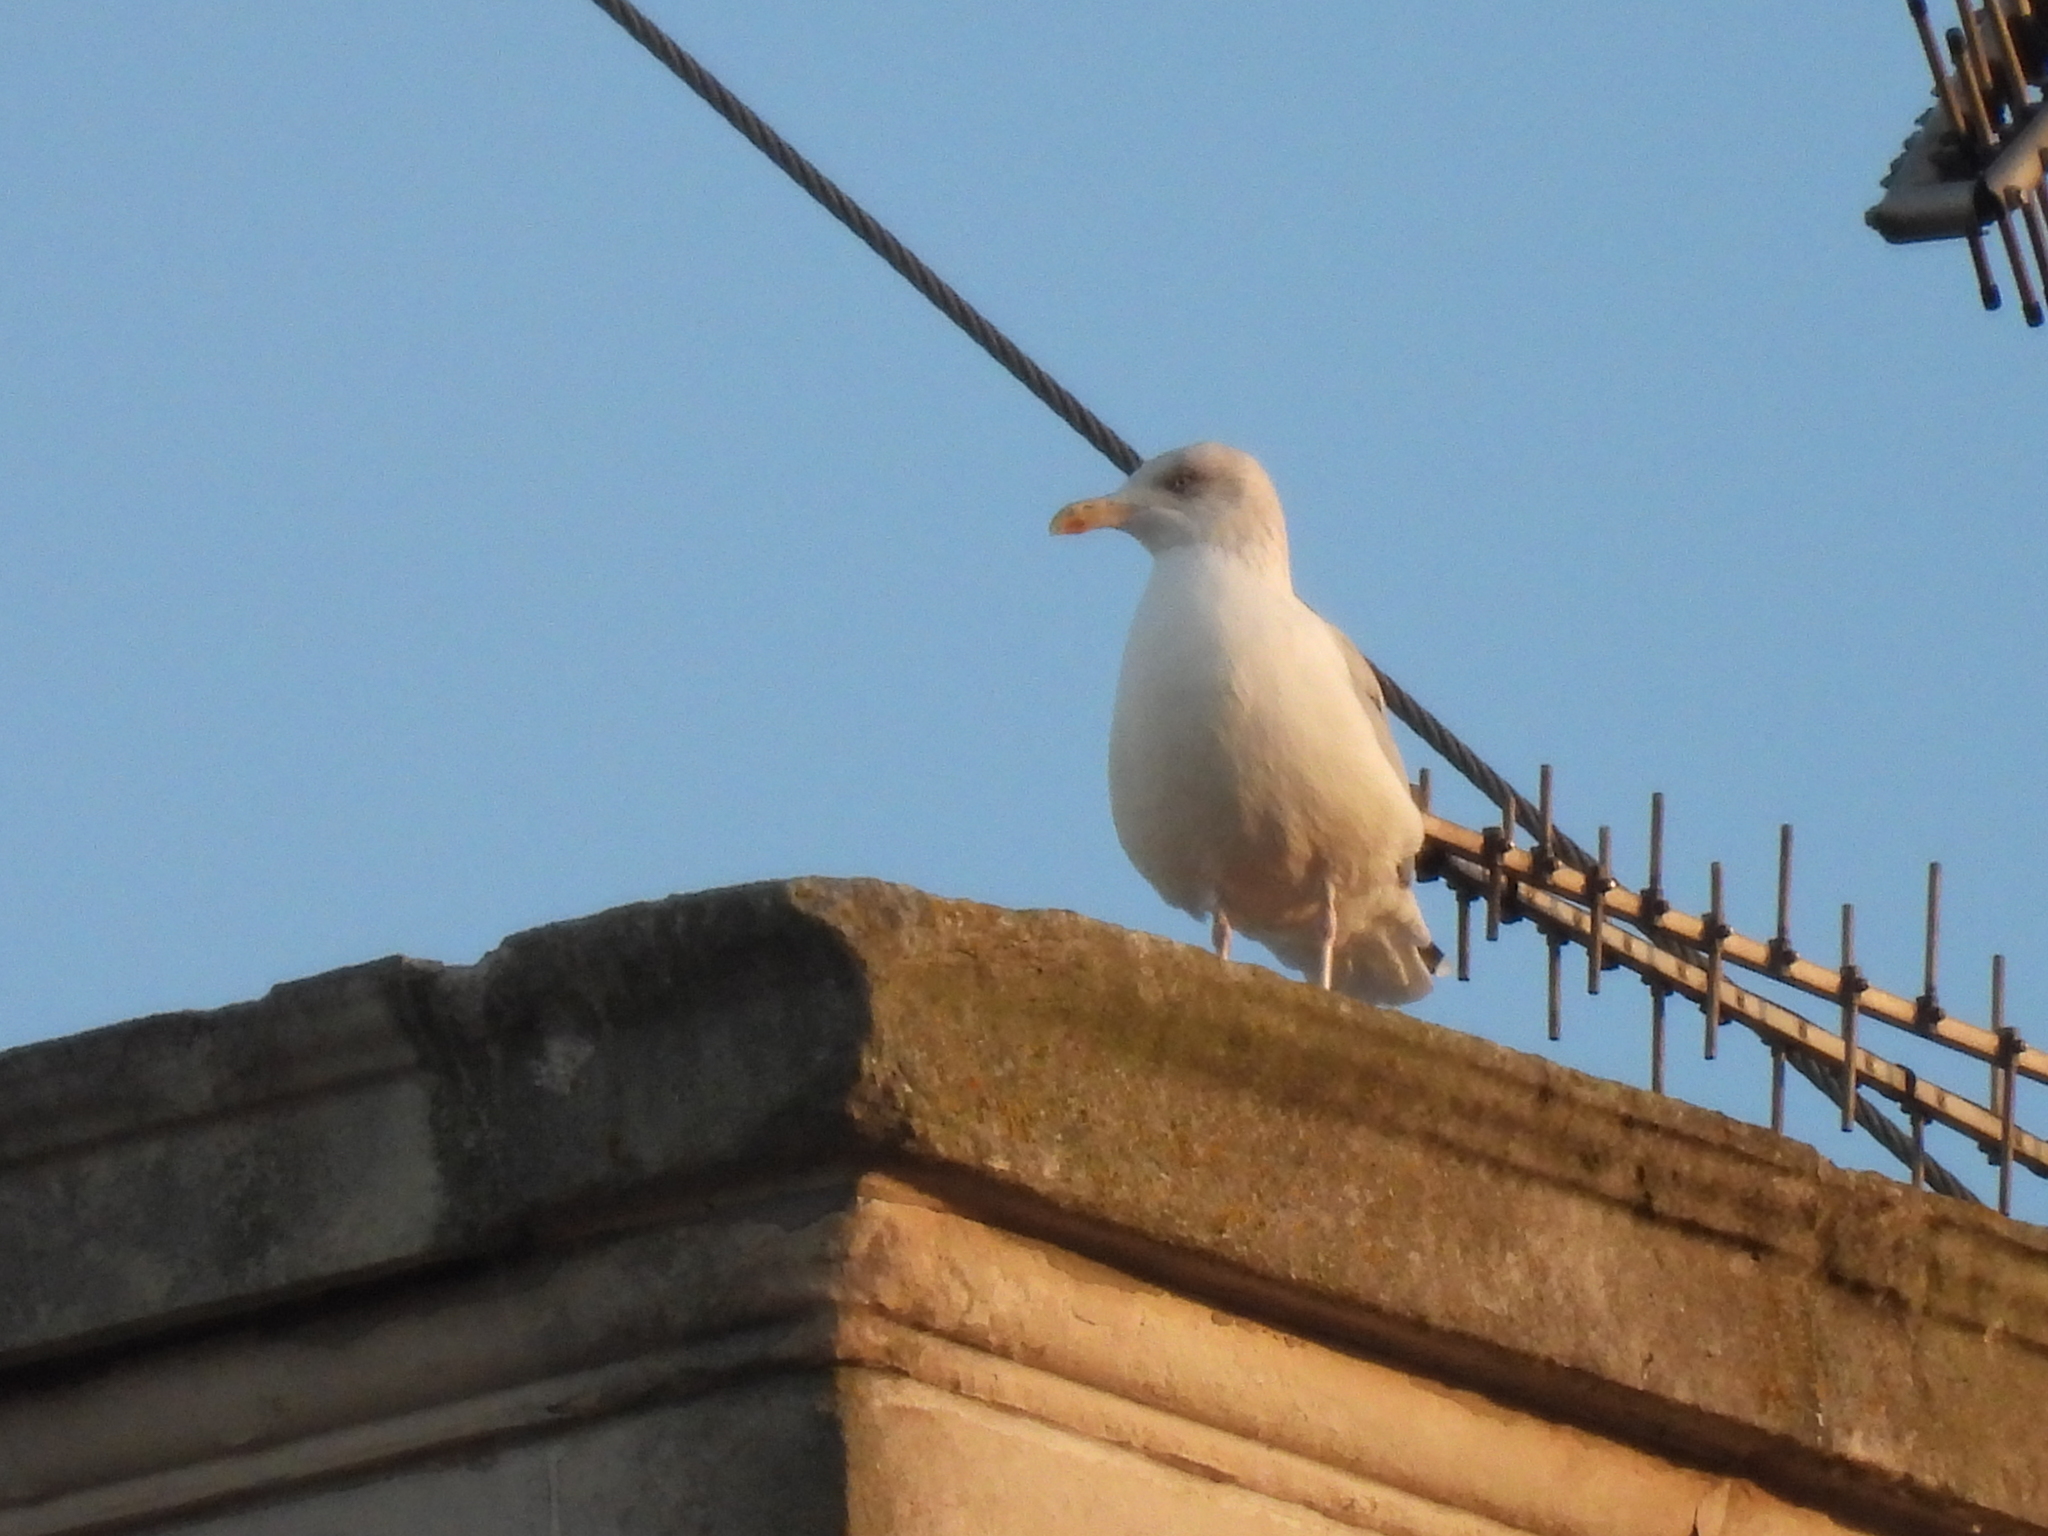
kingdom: Animalia
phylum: Chordata
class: Aves
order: Charadriiformes
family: Laridae
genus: Larus
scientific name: Larus argentatus
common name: Herring gull
